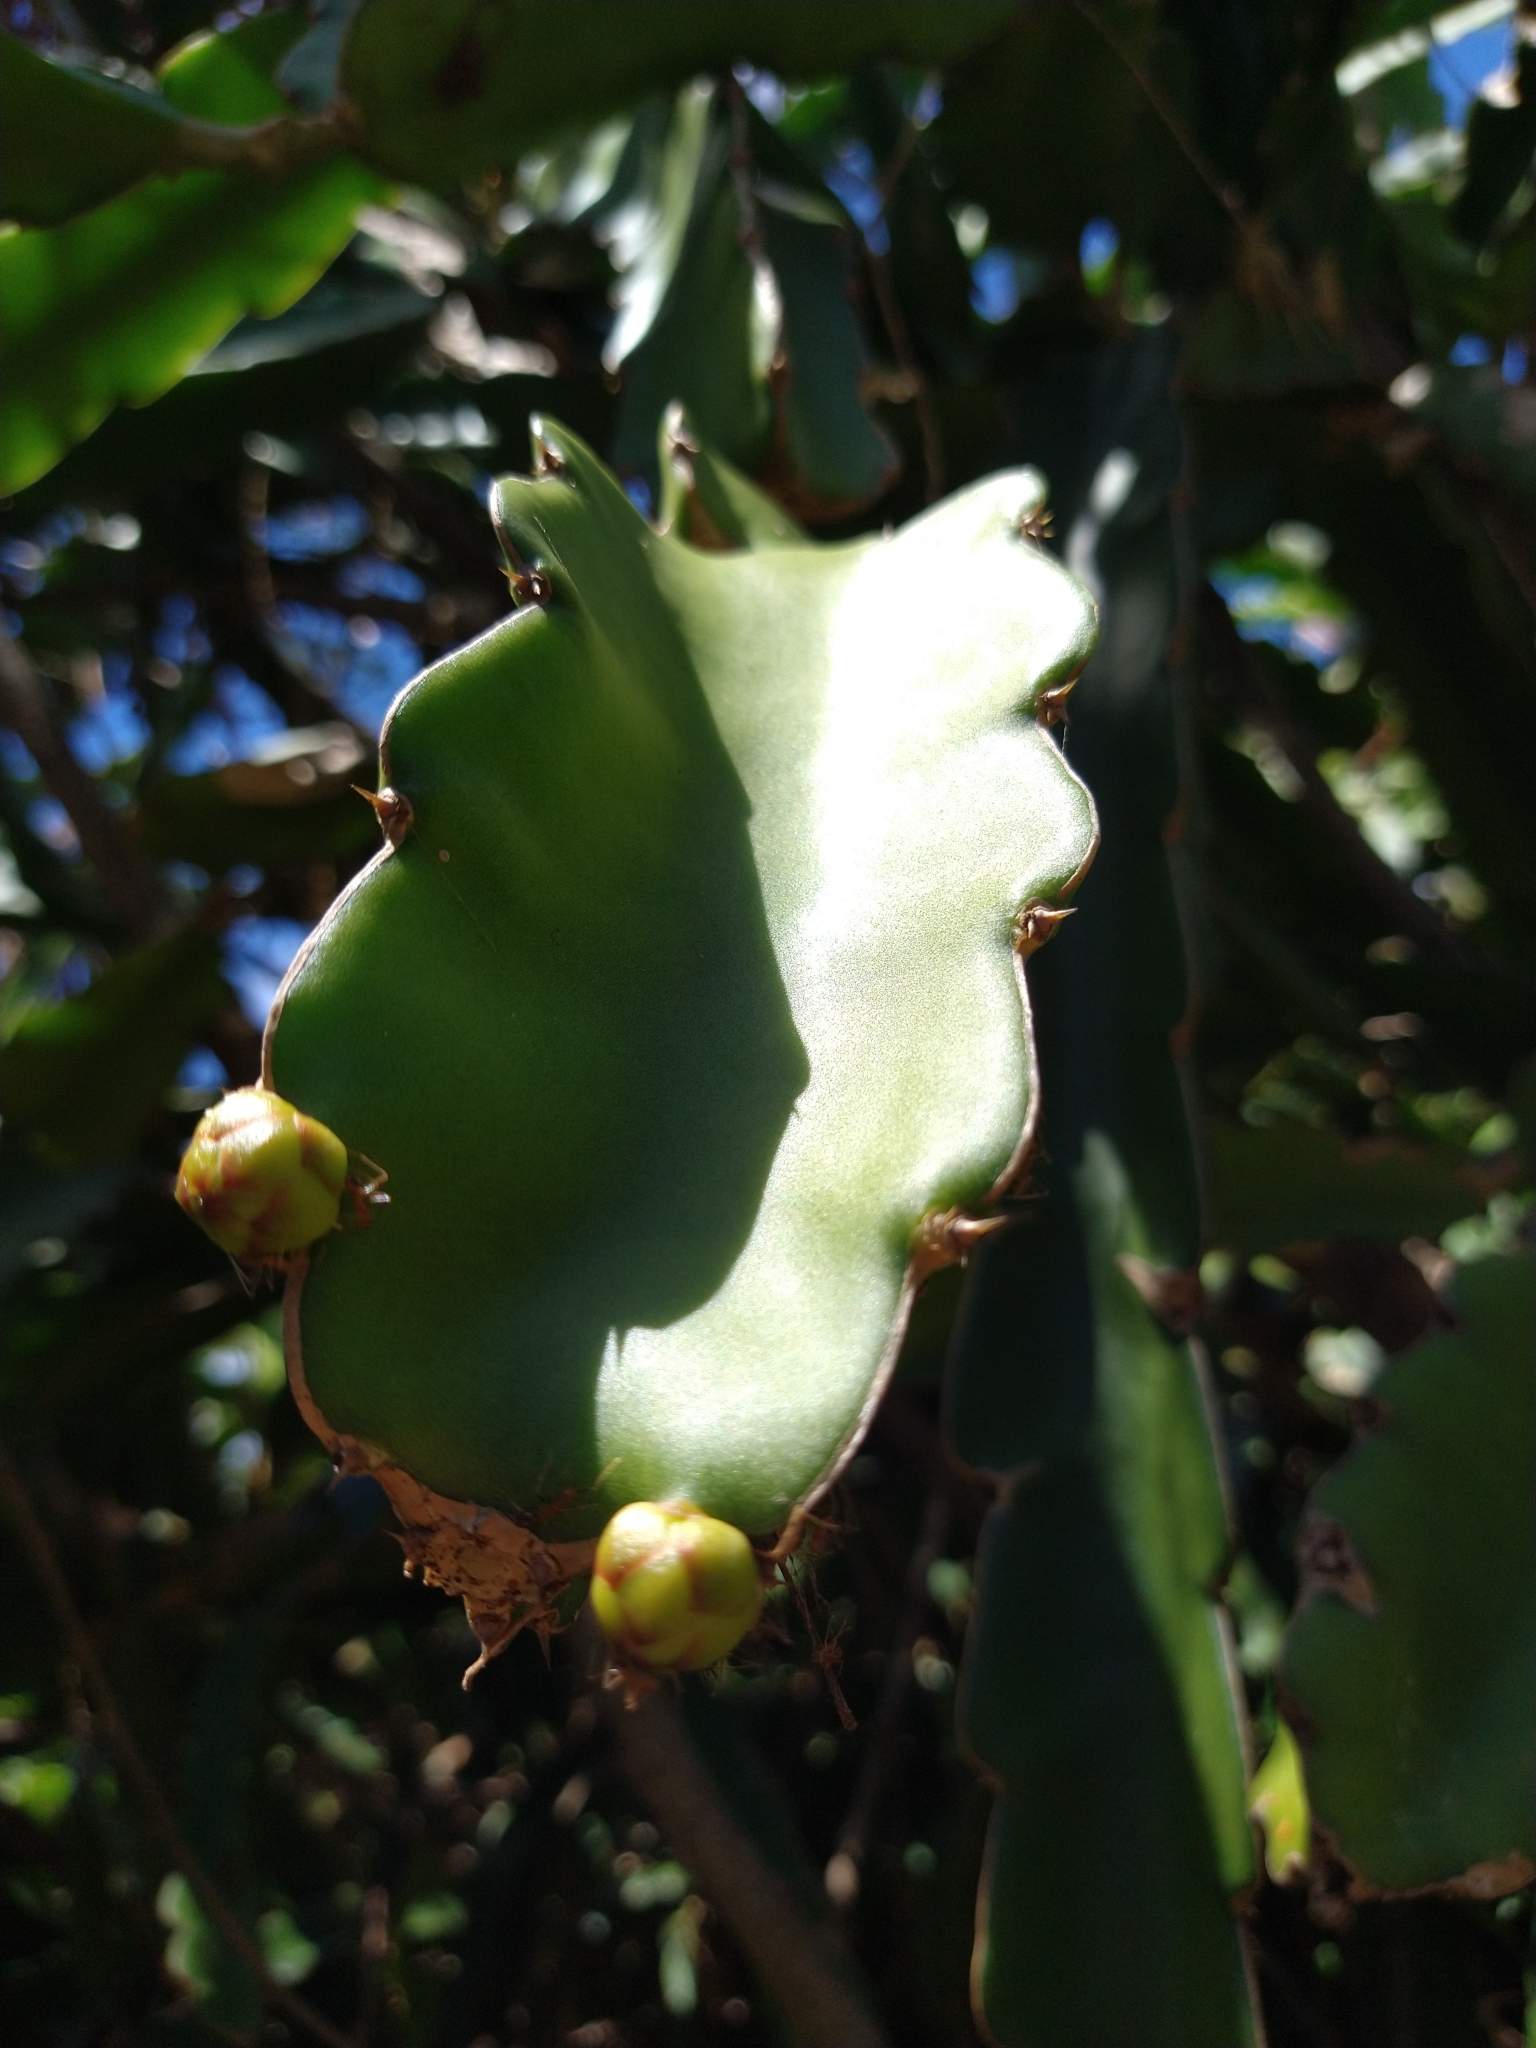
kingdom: Plantae
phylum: Tracheophyta
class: Magnoliopsida
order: Caryophyllales
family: Cactaceae
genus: Selenicereus
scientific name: Selenicereus undatus
